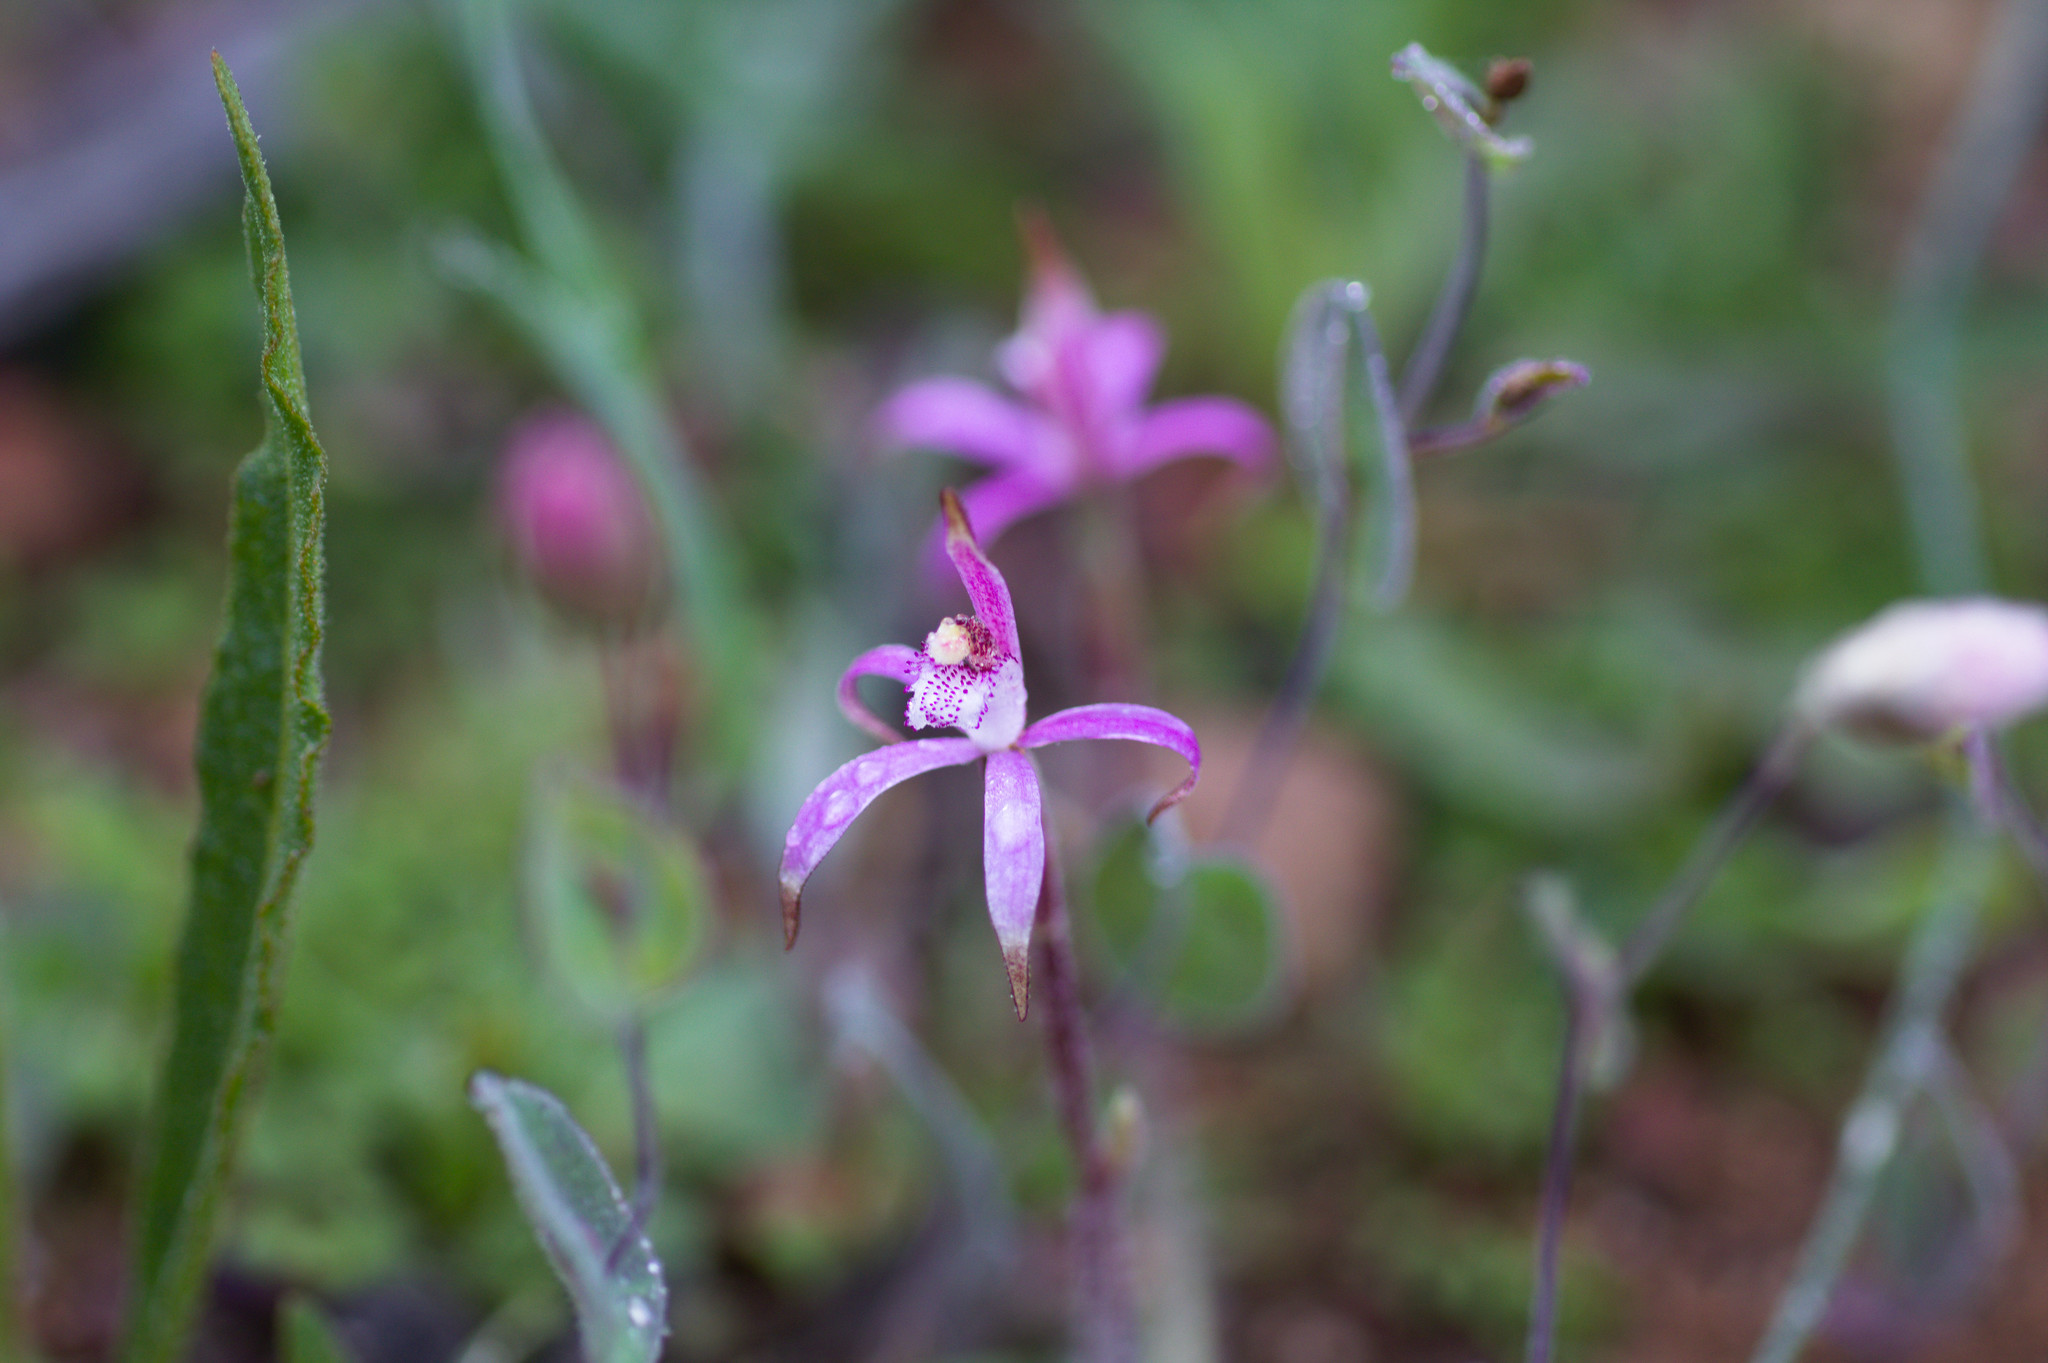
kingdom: Plantae
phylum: Tracheophyta
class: Liliopsida
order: Asparagales
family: Orchidaceae
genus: Caladenia
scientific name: Caladenia hirta
